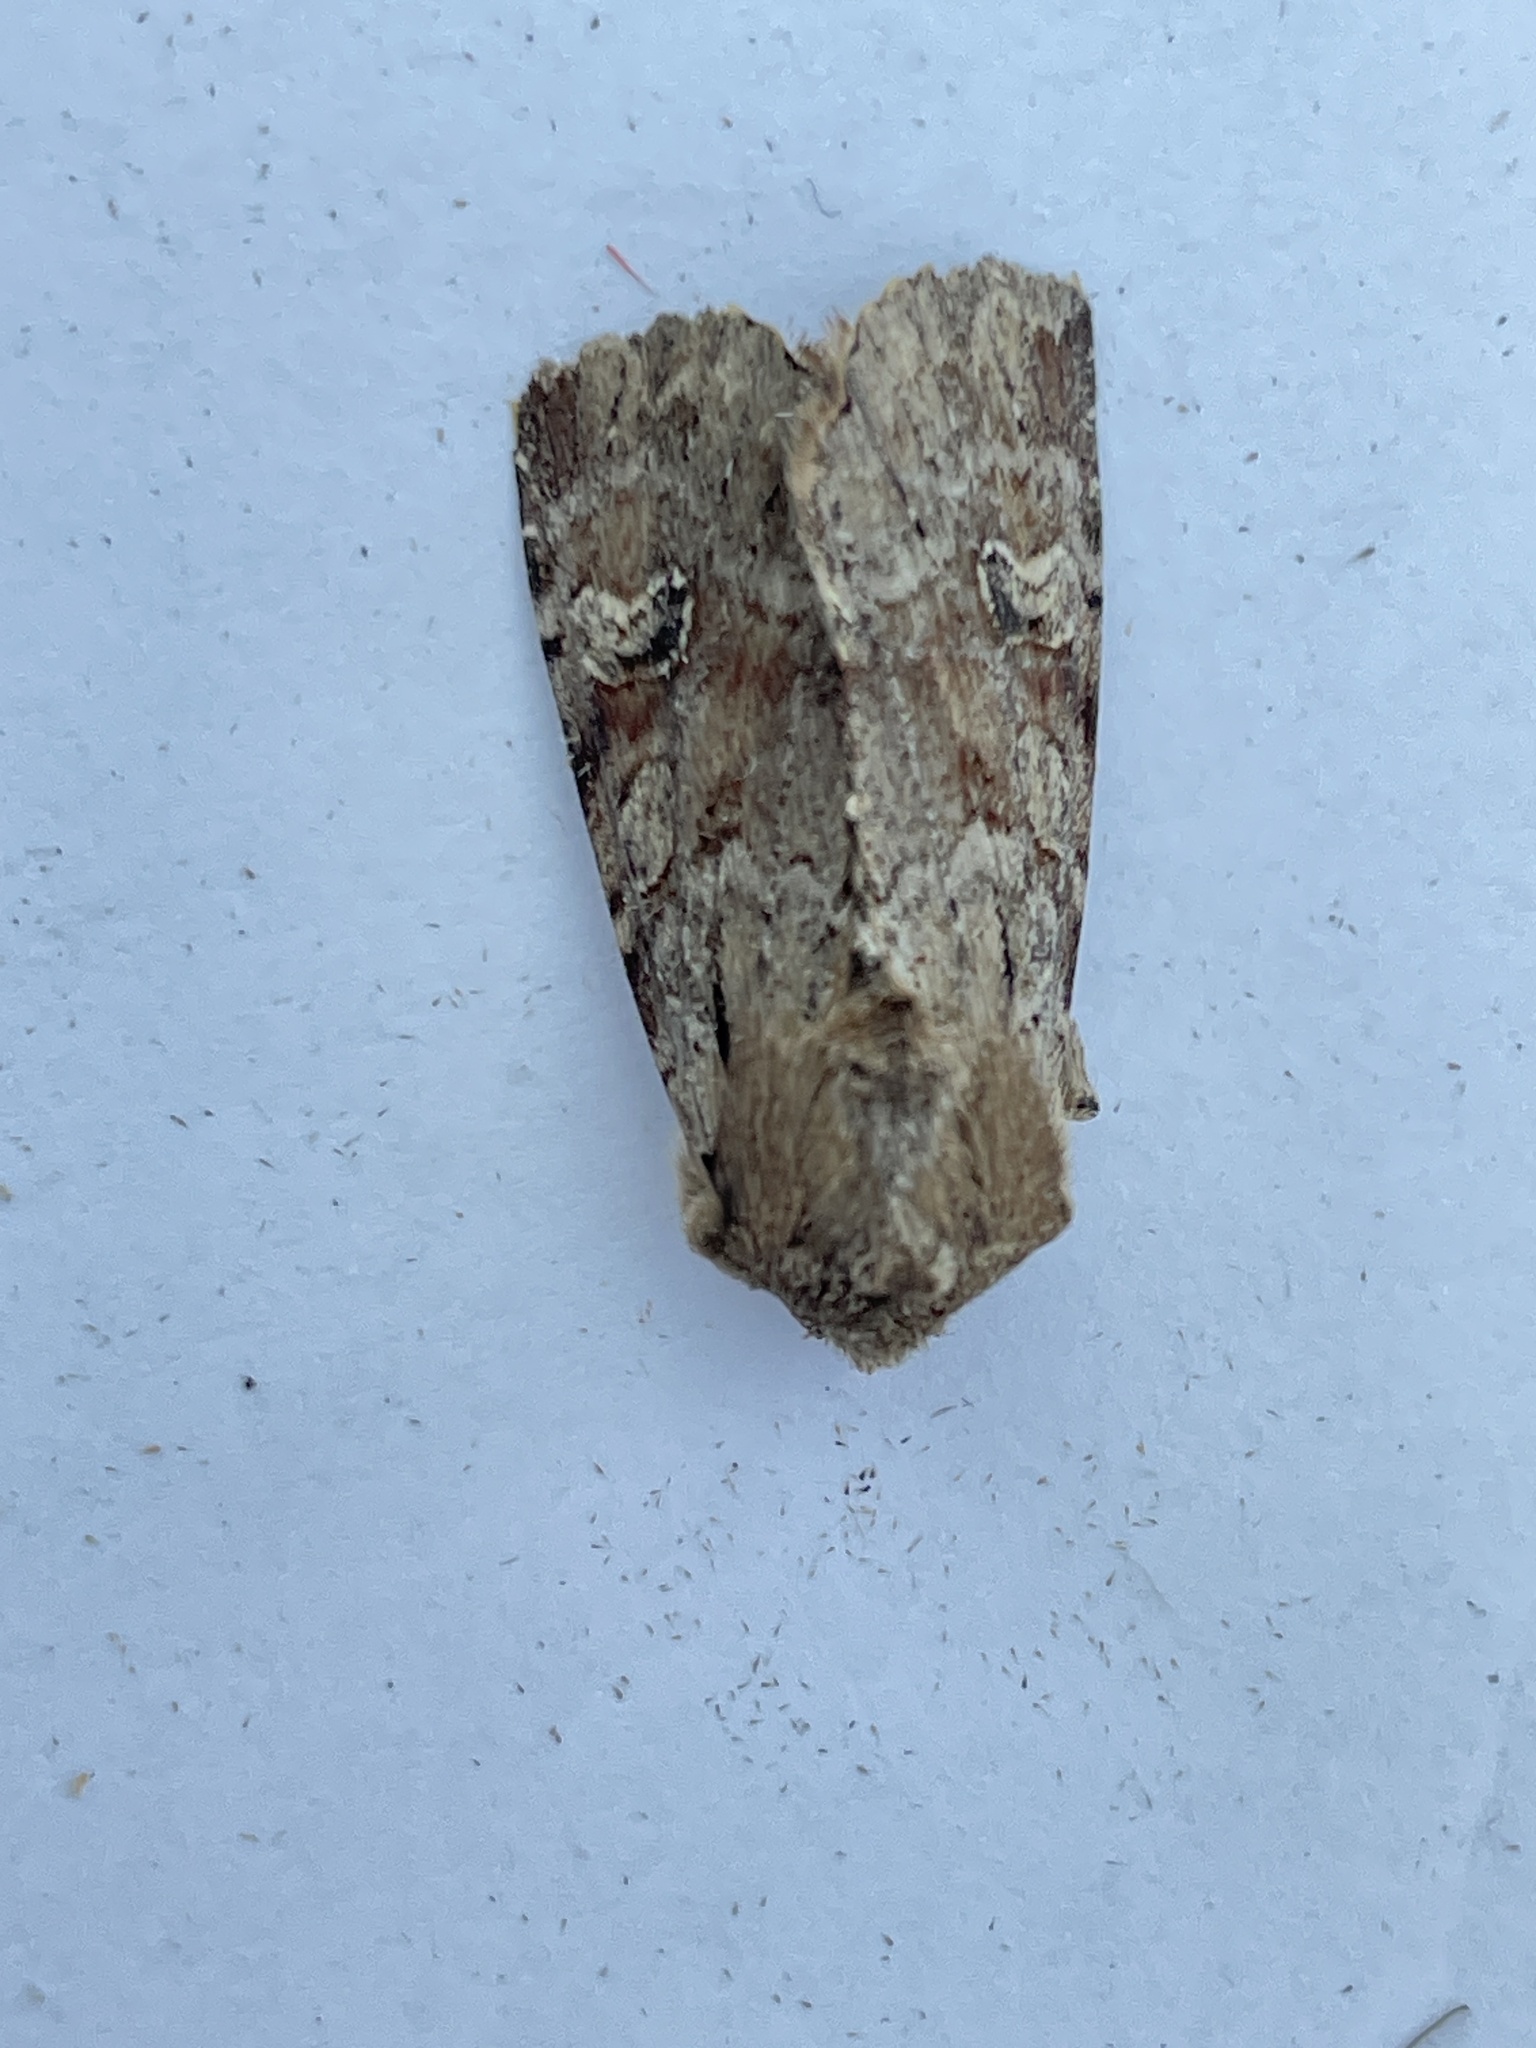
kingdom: Animalia
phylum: Arthropoda
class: Insecta
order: Lepidoptera
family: Noctuidae
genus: Apamea
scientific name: Apamea sordens
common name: Rustic shoulder-knot
